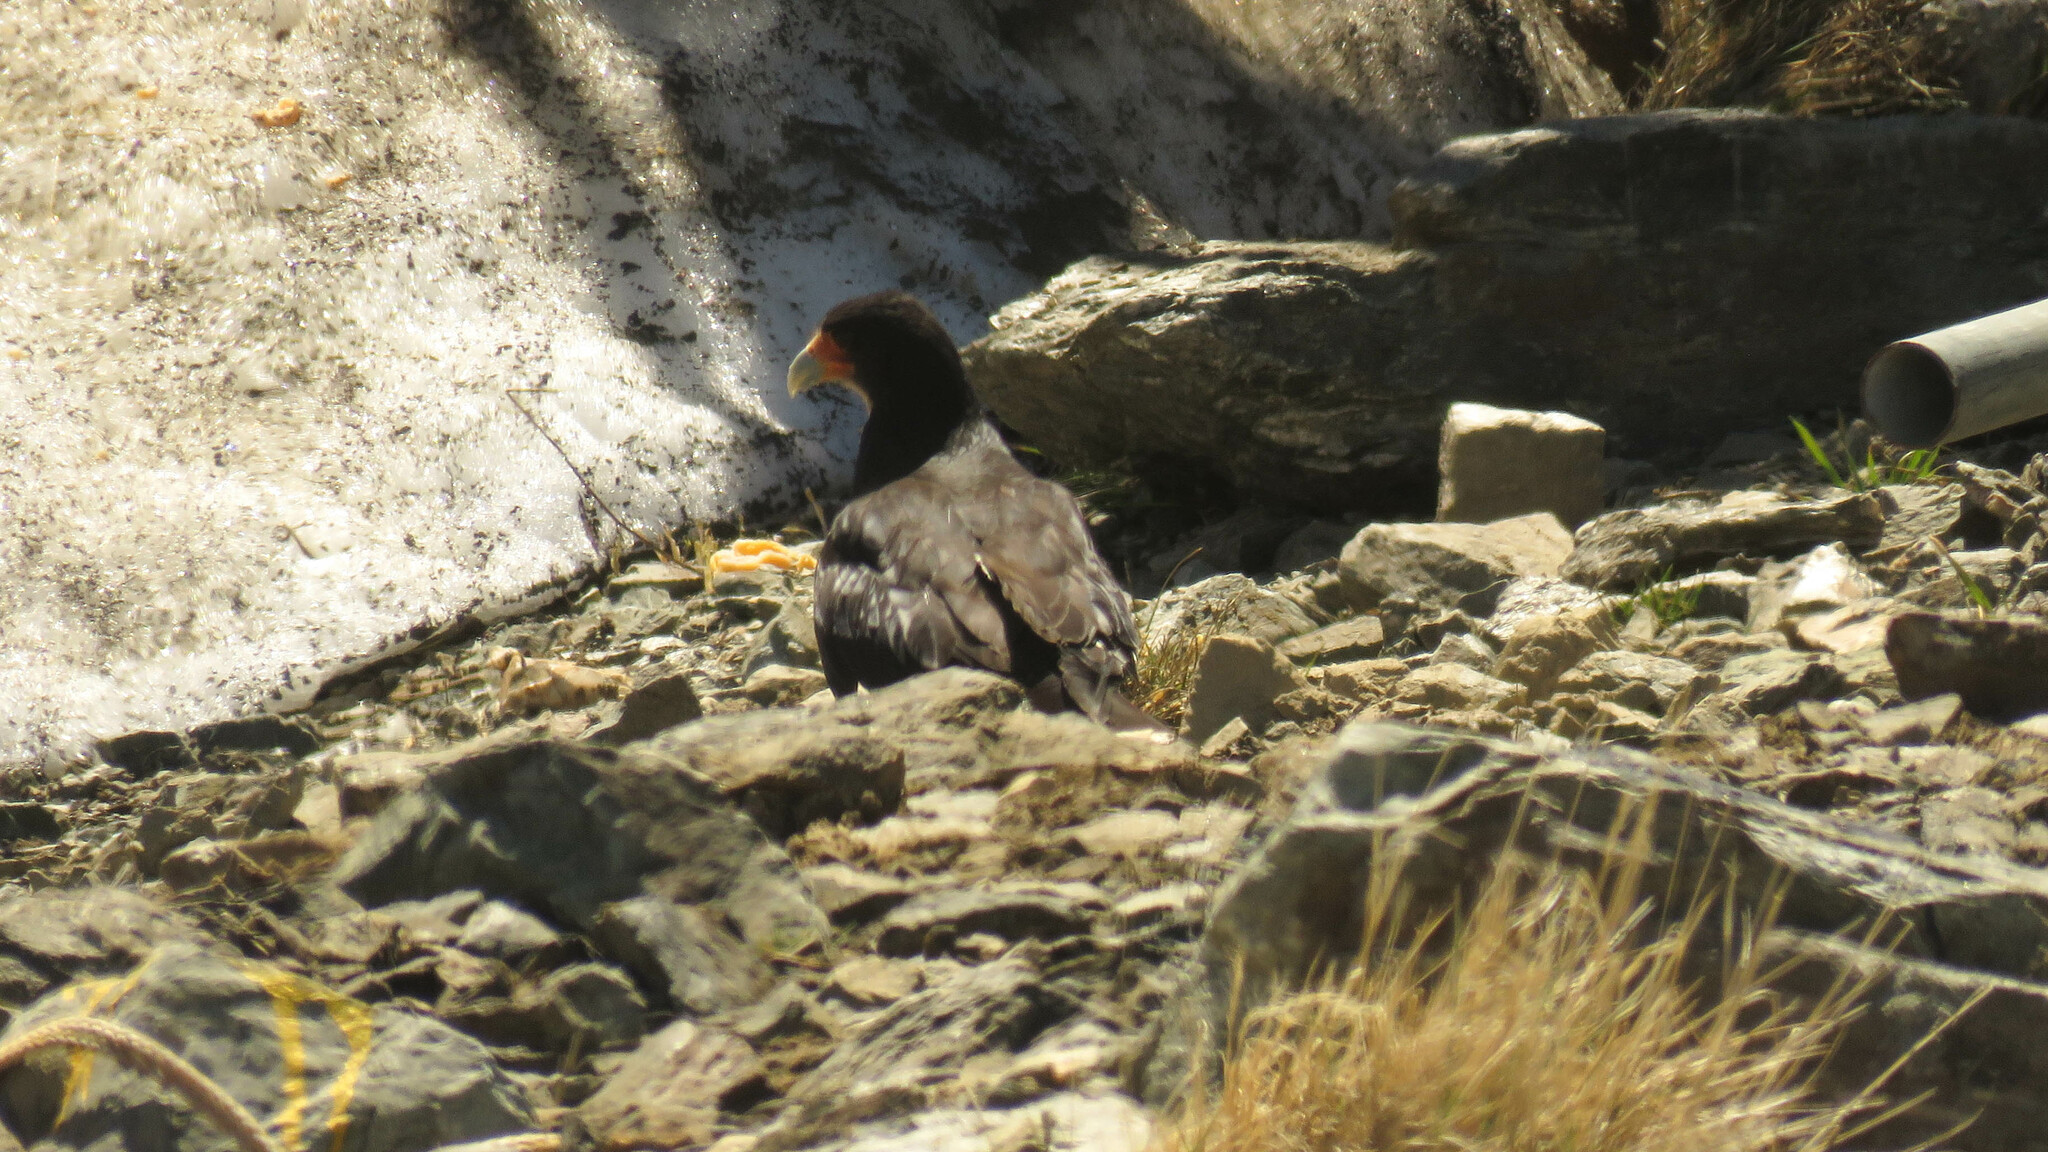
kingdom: Animalia
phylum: Chordata
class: Aves
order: Falconiformes
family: Falconidae
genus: Daptrius
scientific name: Daptrius
